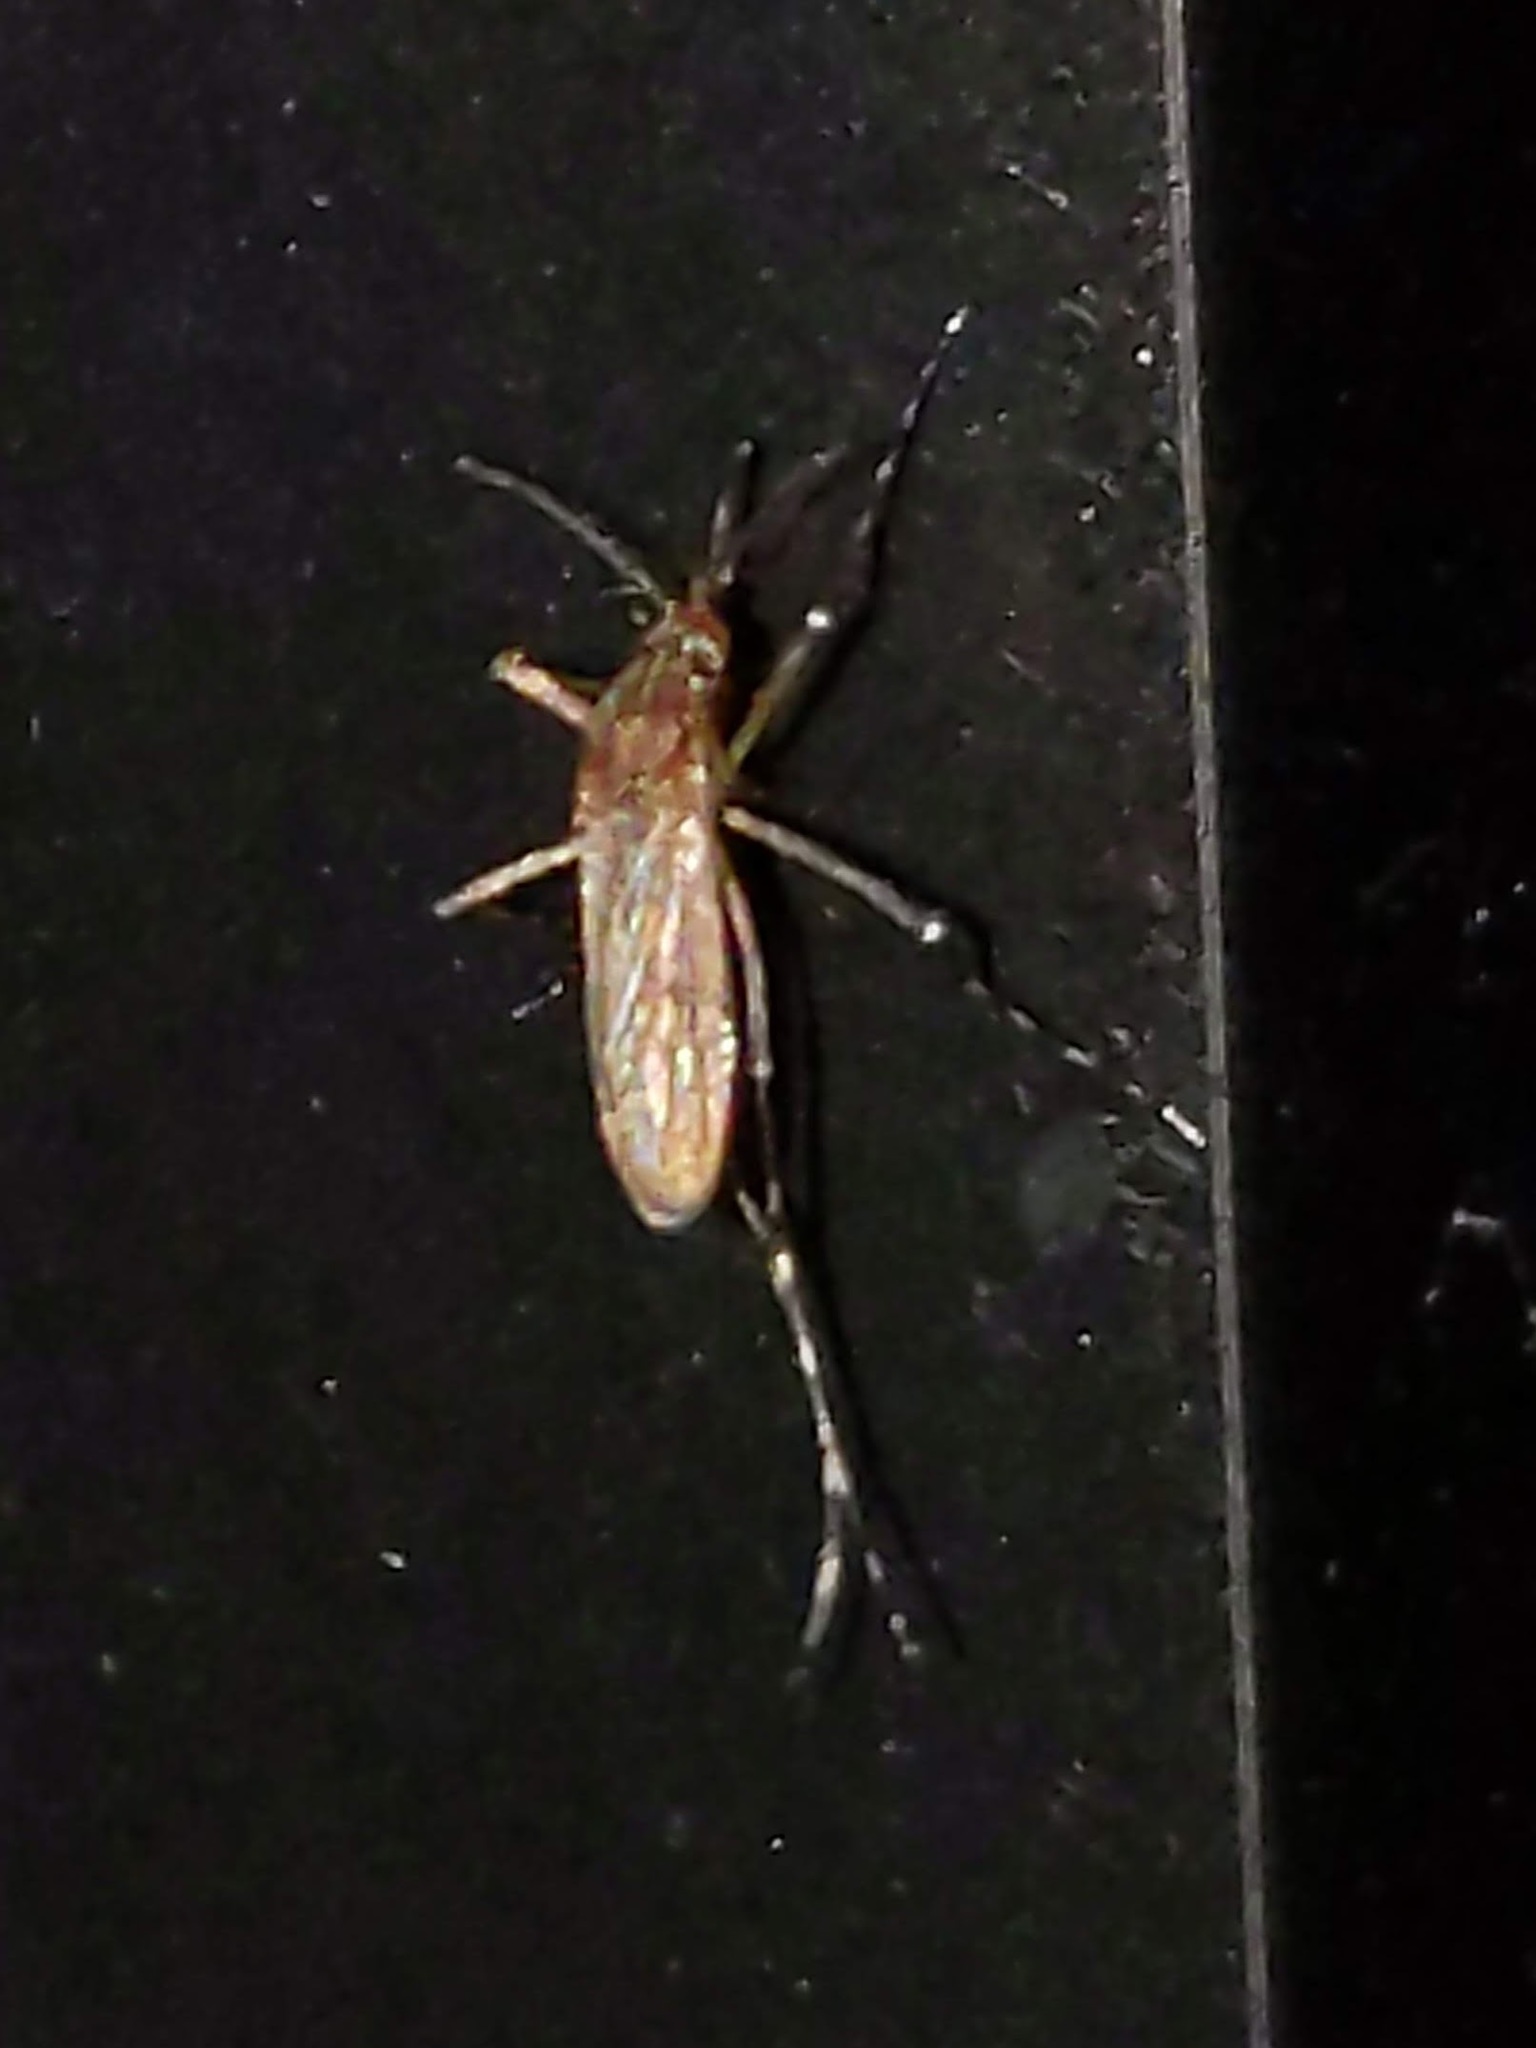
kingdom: Animalia
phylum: Arthropoda
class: Insecta
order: Diptera
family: Culicidae
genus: Coquillettidia
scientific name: Coquillettidia perturbans
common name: Cattail mosquito
